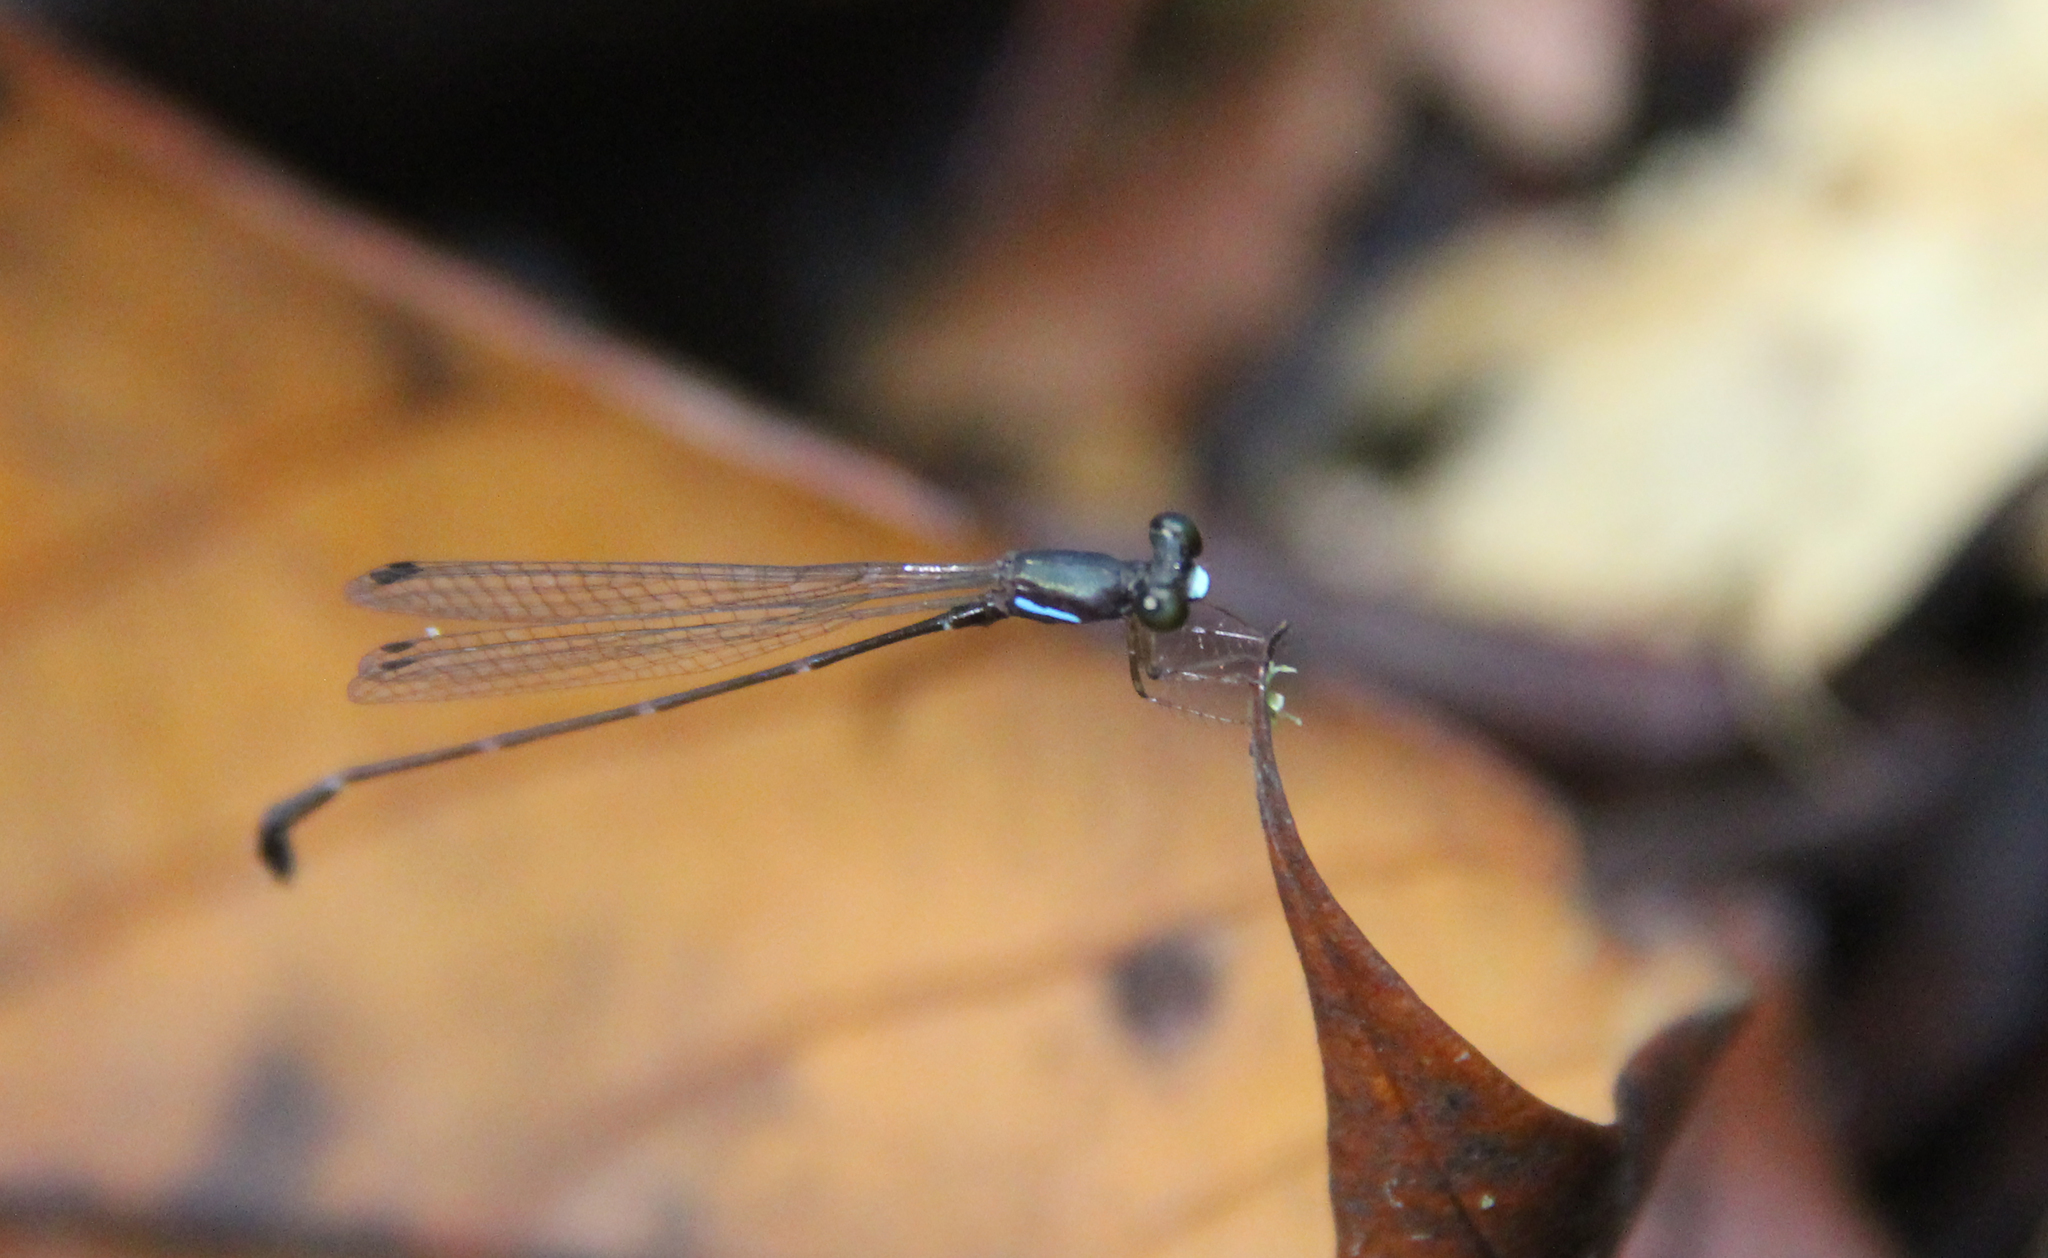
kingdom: Animalia
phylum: Arthropoda
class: Insecta
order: Odonata
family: Platystictidae
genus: Ceylonosticta
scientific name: Ceylonosticta lankanensis
